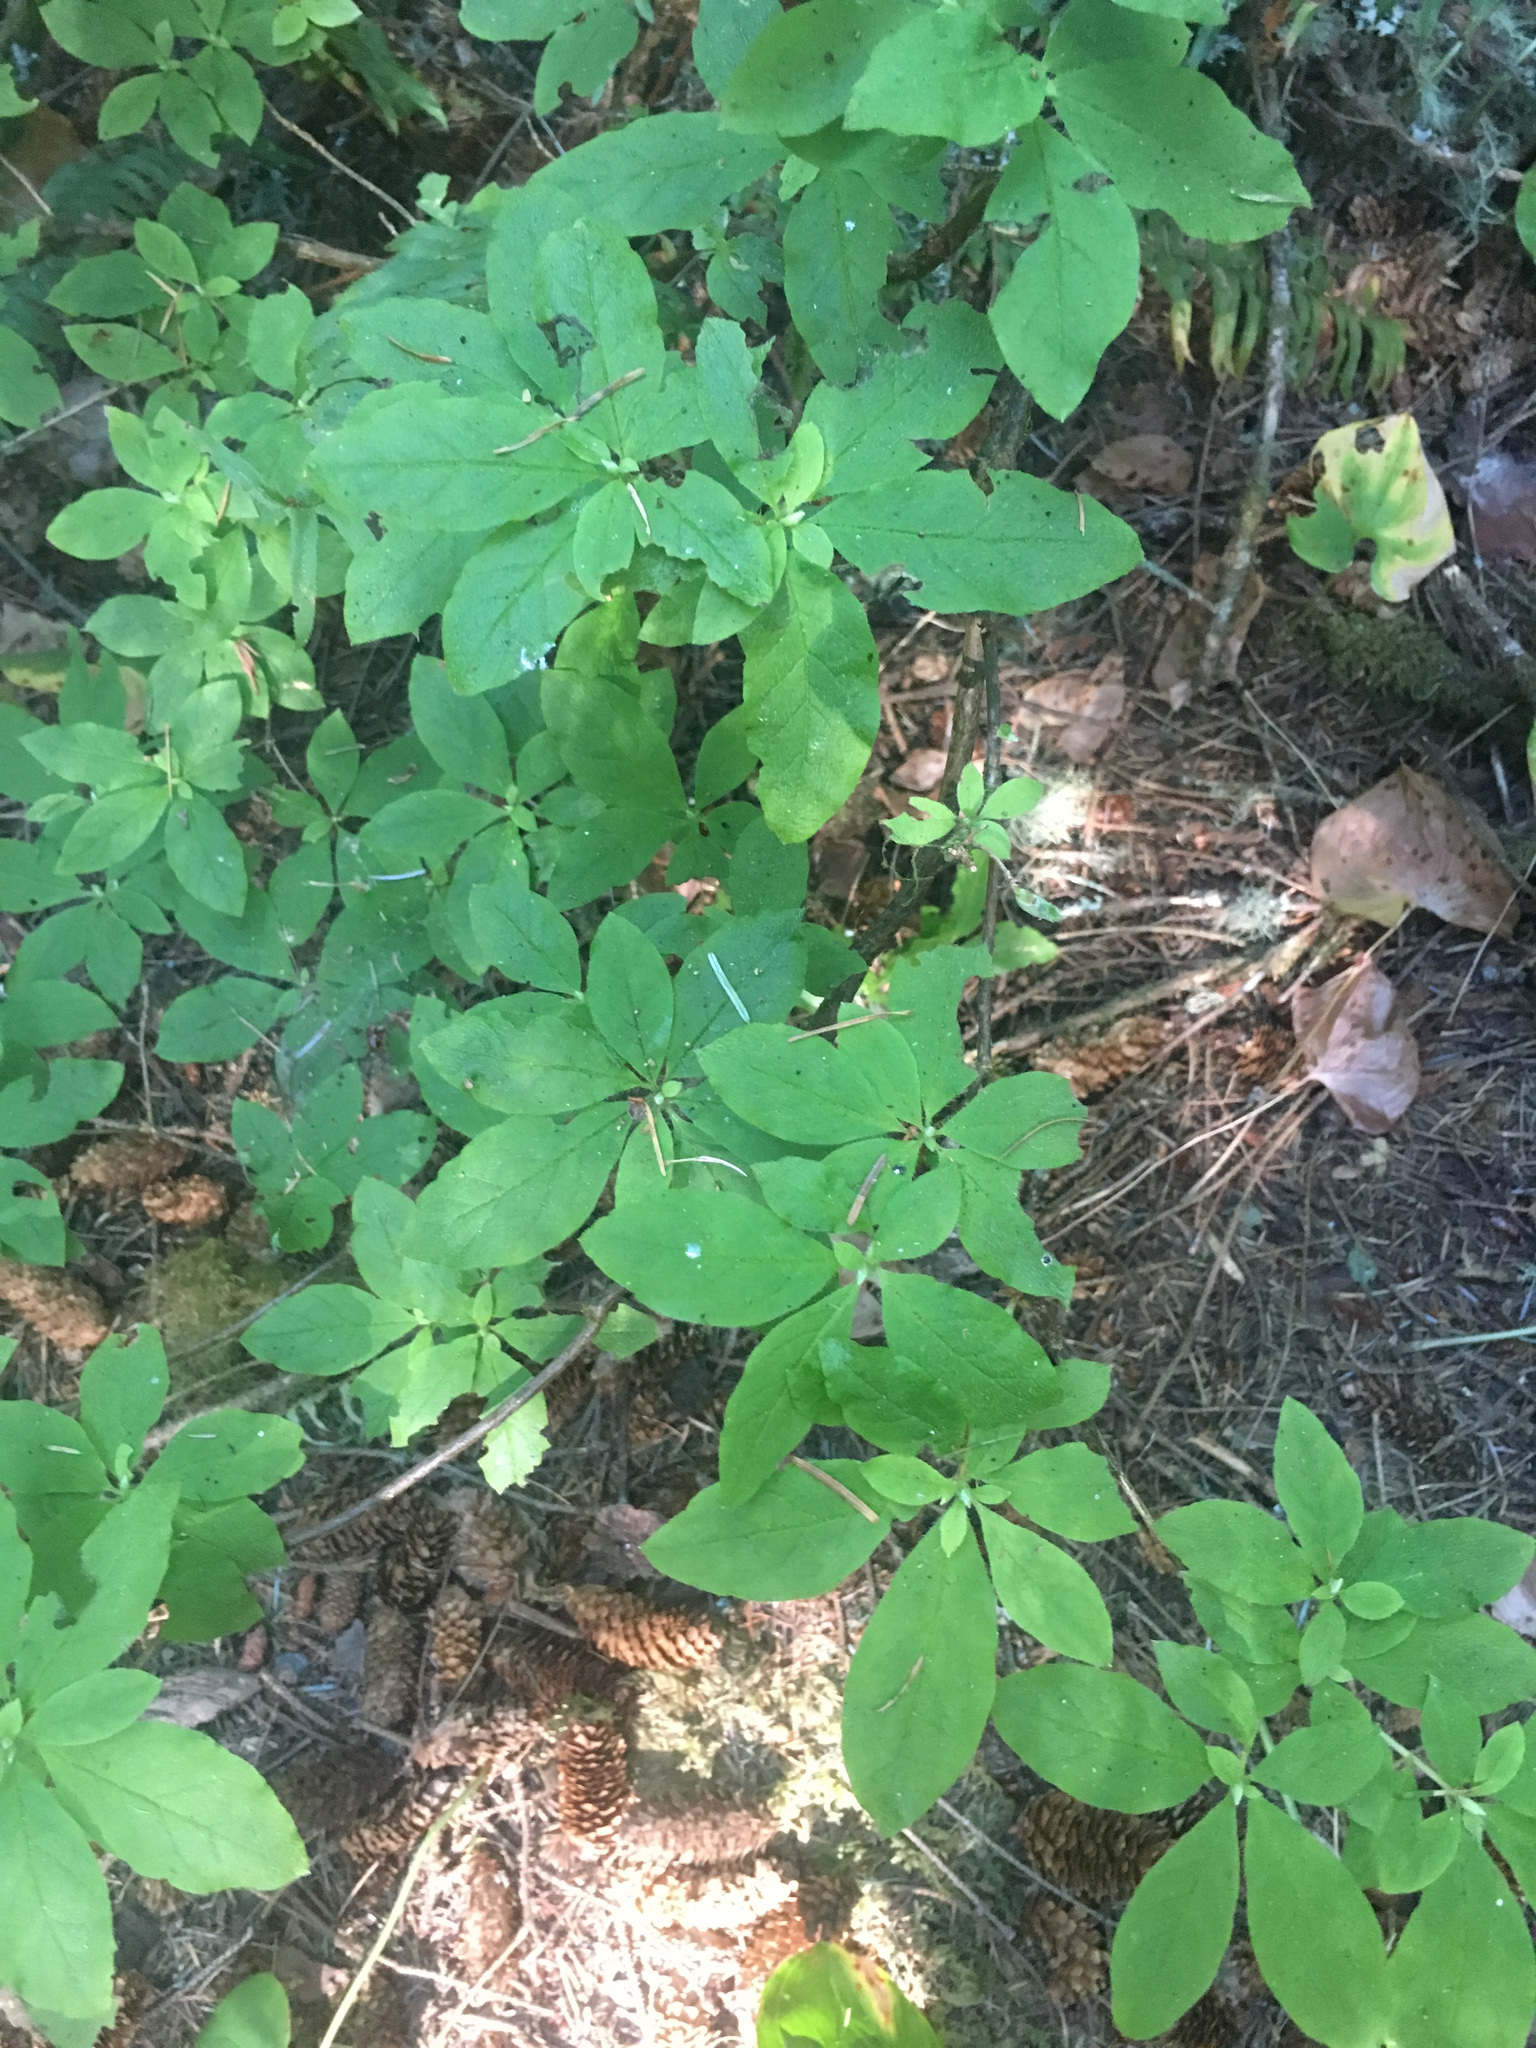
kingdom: Plantae
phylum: Tracheophyta
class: Magnoliopsida
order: Ericales
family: Ericaceae
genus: Rhododendron
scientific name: Rhododendron menziesii
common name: Pacific menziesia
